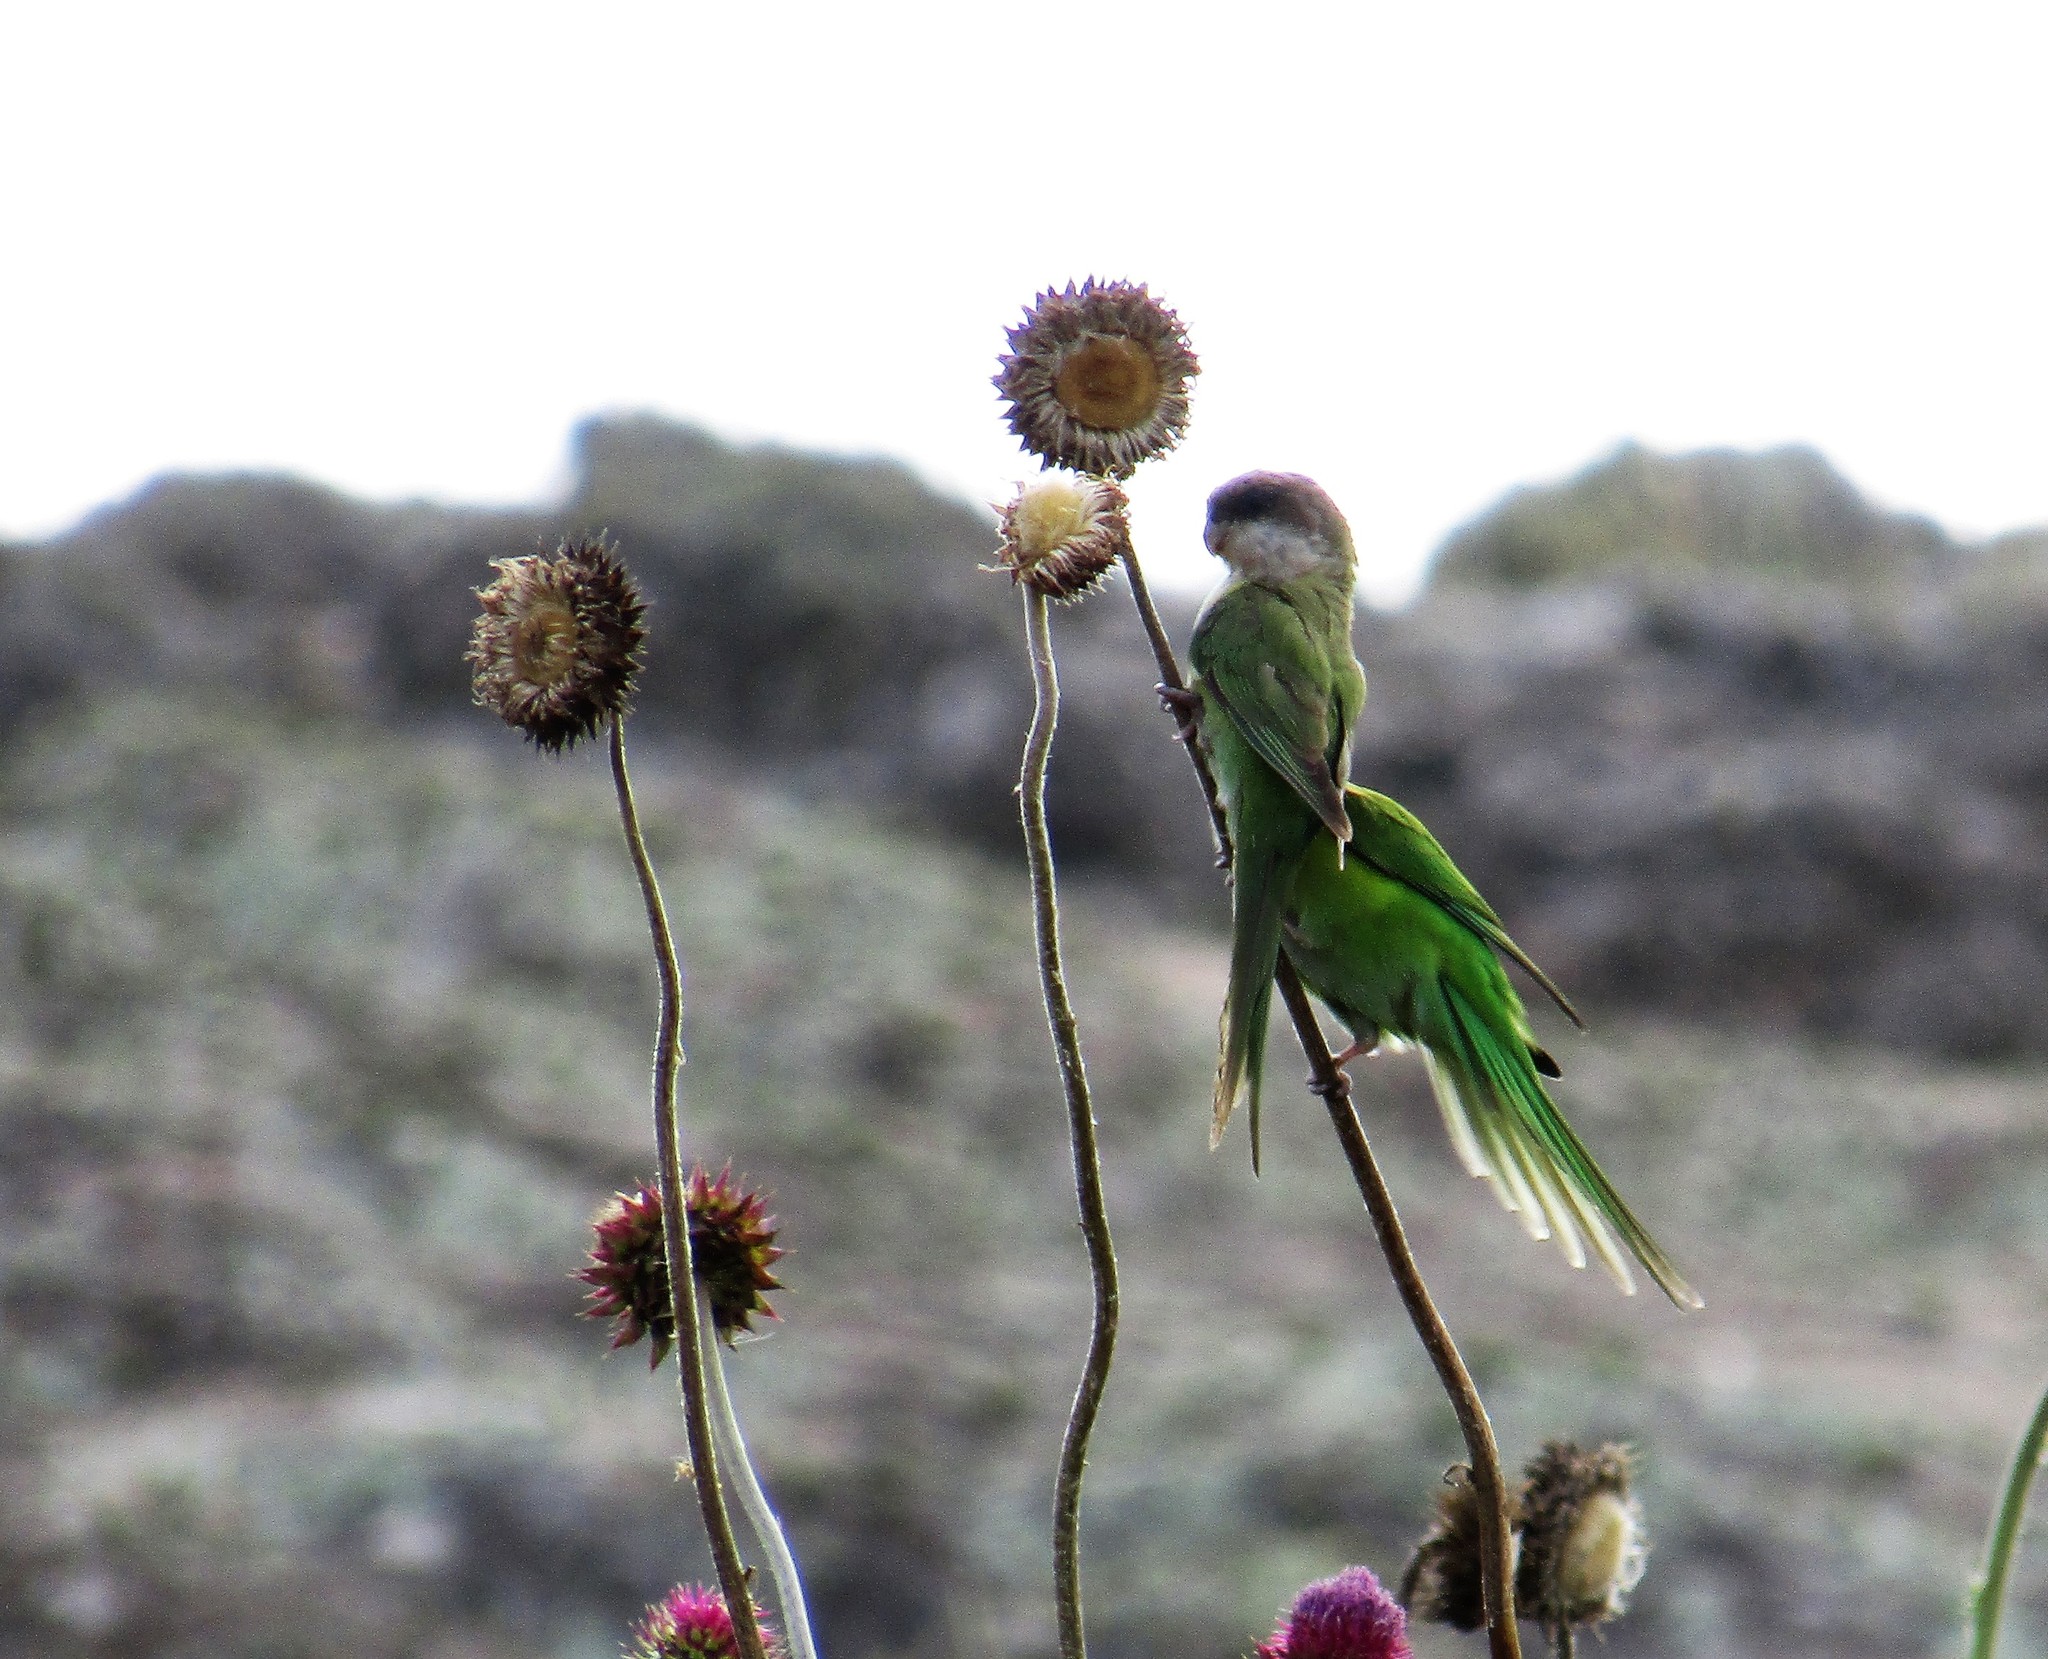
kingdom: Animalia
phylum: Chordata
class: Aves
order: Psittaciformes
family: Psittacidae
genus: Psilopsiagon
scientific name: Psilopsiagon aymara
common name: Grey-hooded parakeet
